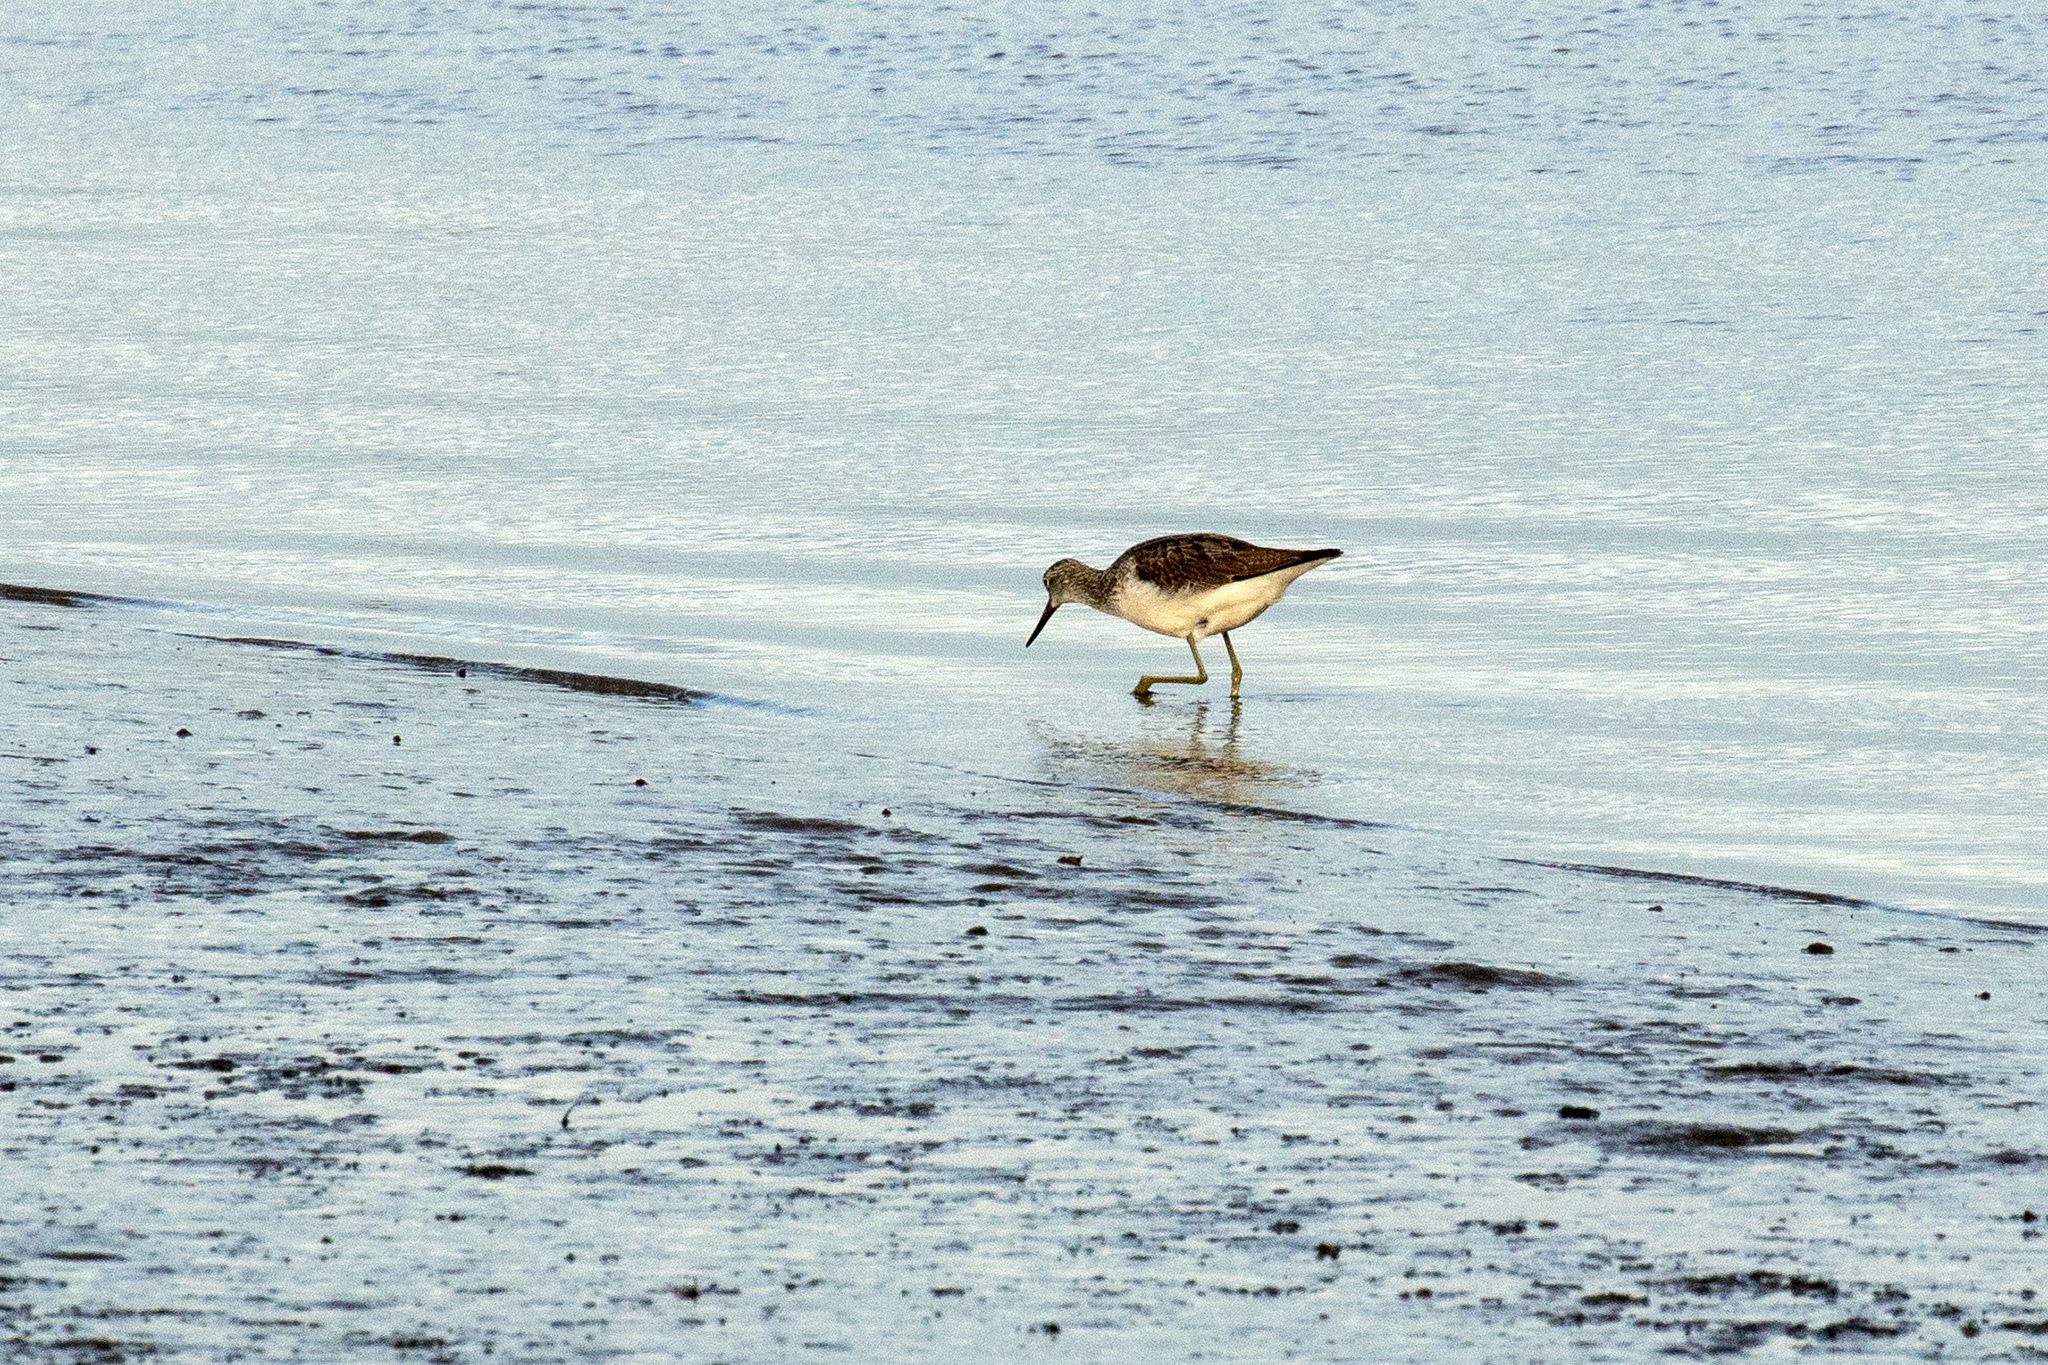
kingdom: Animalia
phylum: Chordata
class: Aves
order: Charadriiformes
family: Scolopacidae
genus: Tringa
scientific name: Tringa nebularia
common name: Common greenshank
